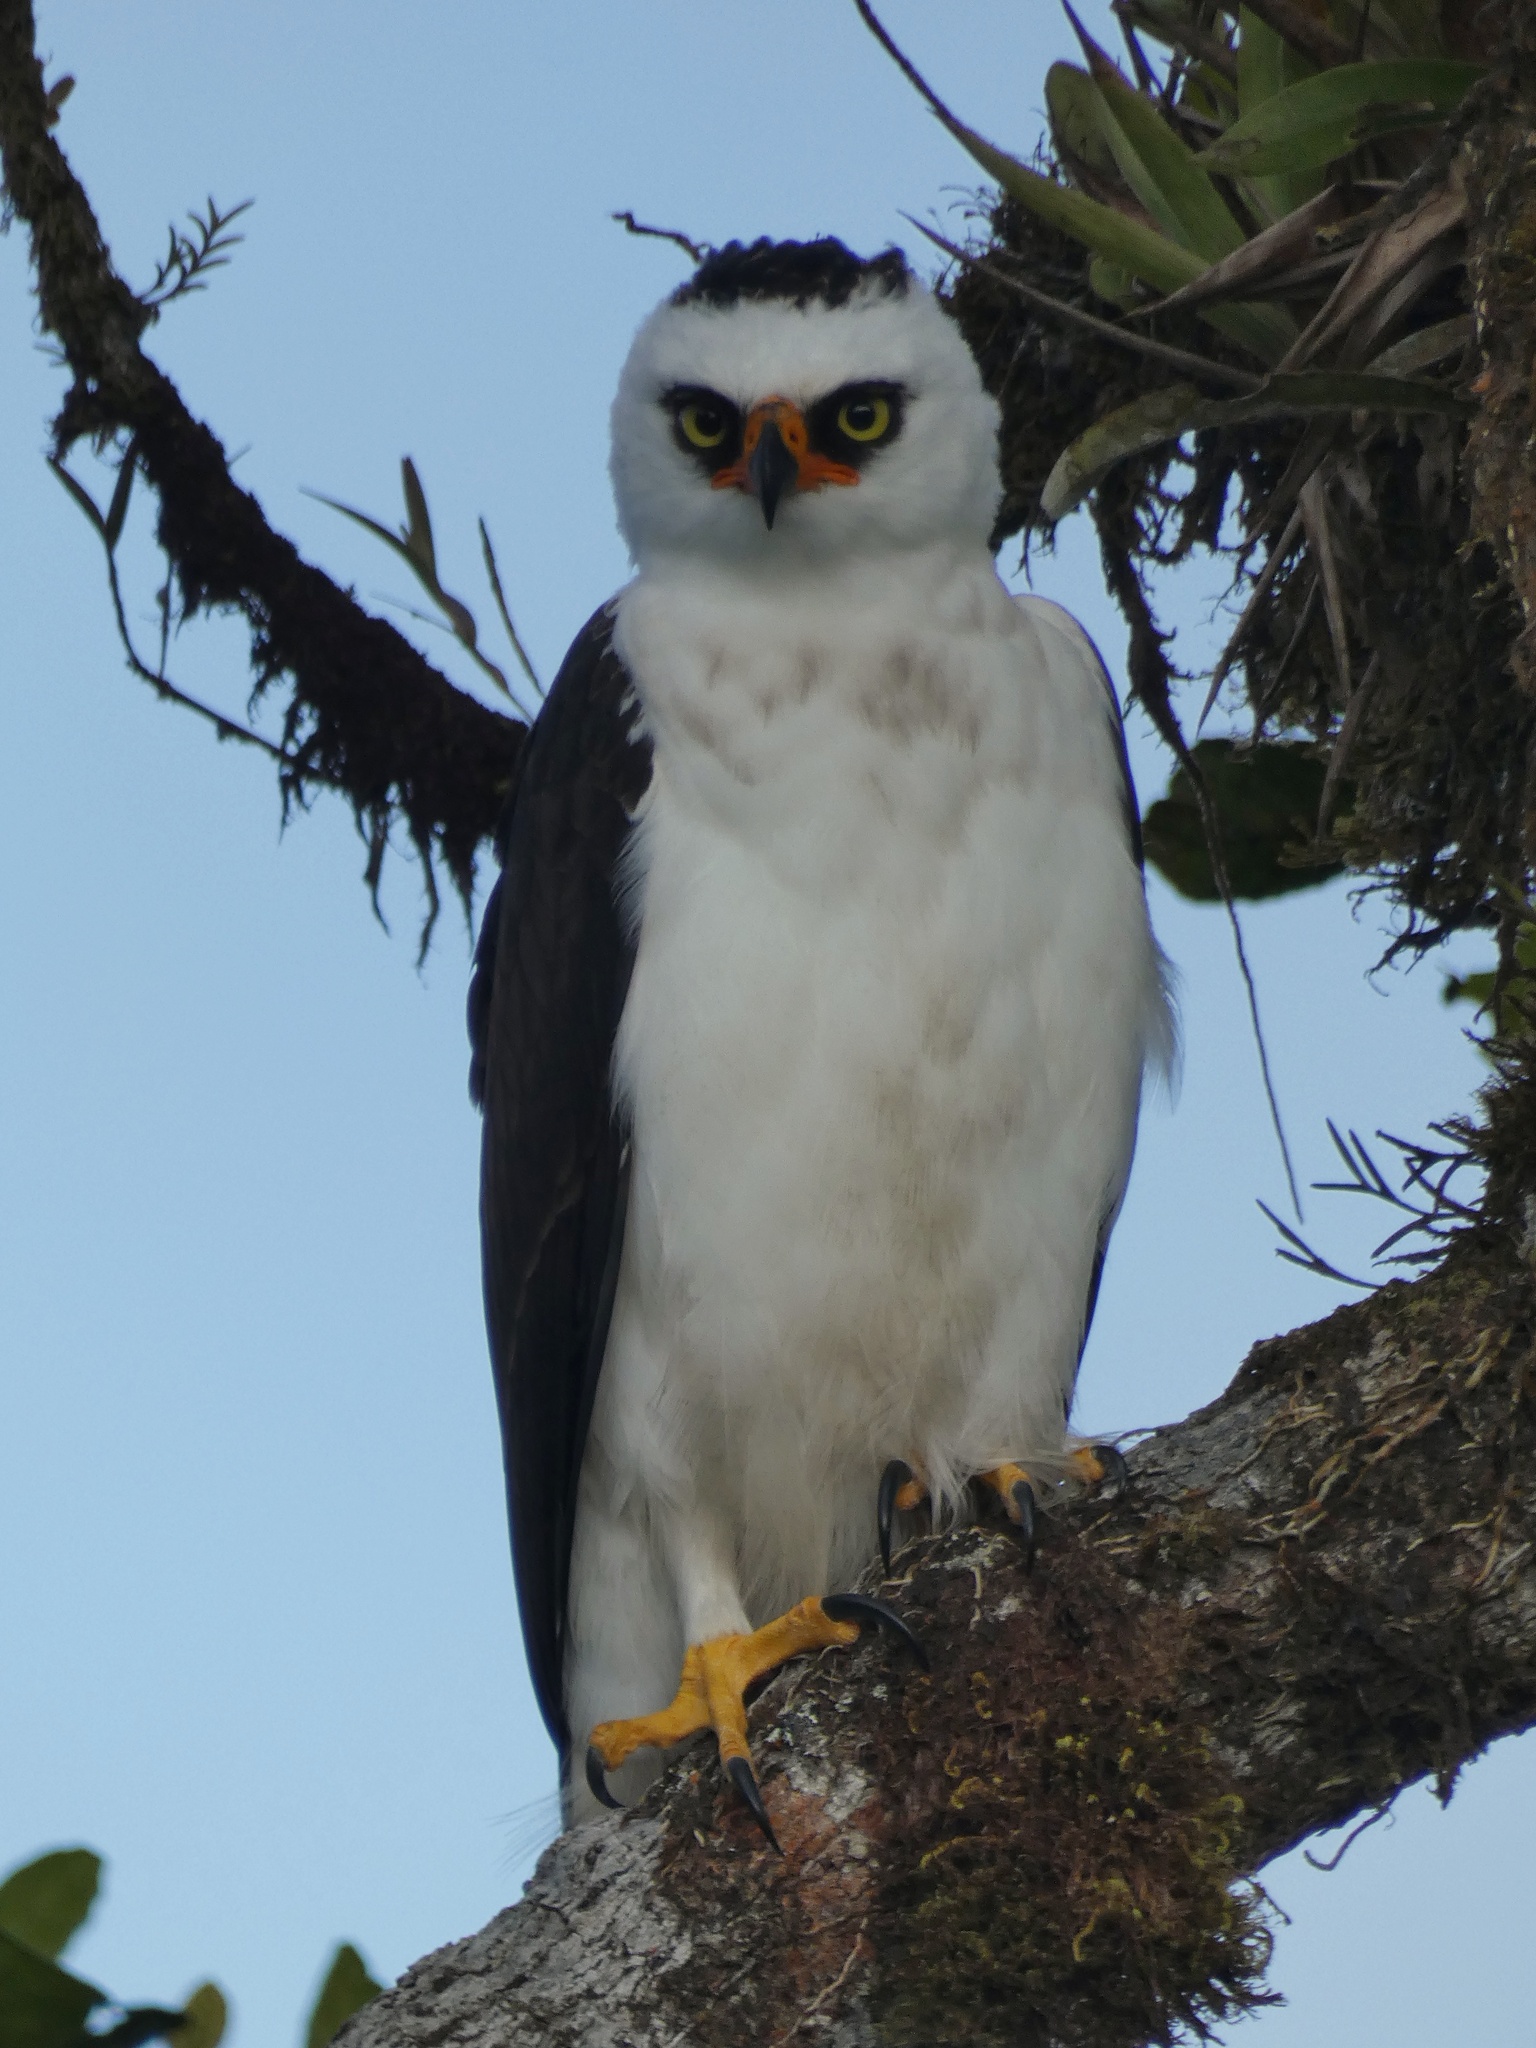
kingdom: Animalia
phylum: Chordata
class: Aves
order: Accipitriformes
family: Accipitridae
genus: Spizaetus
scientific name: Spizaetus melanoleucus
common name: Black-and-white hawk-eagle
